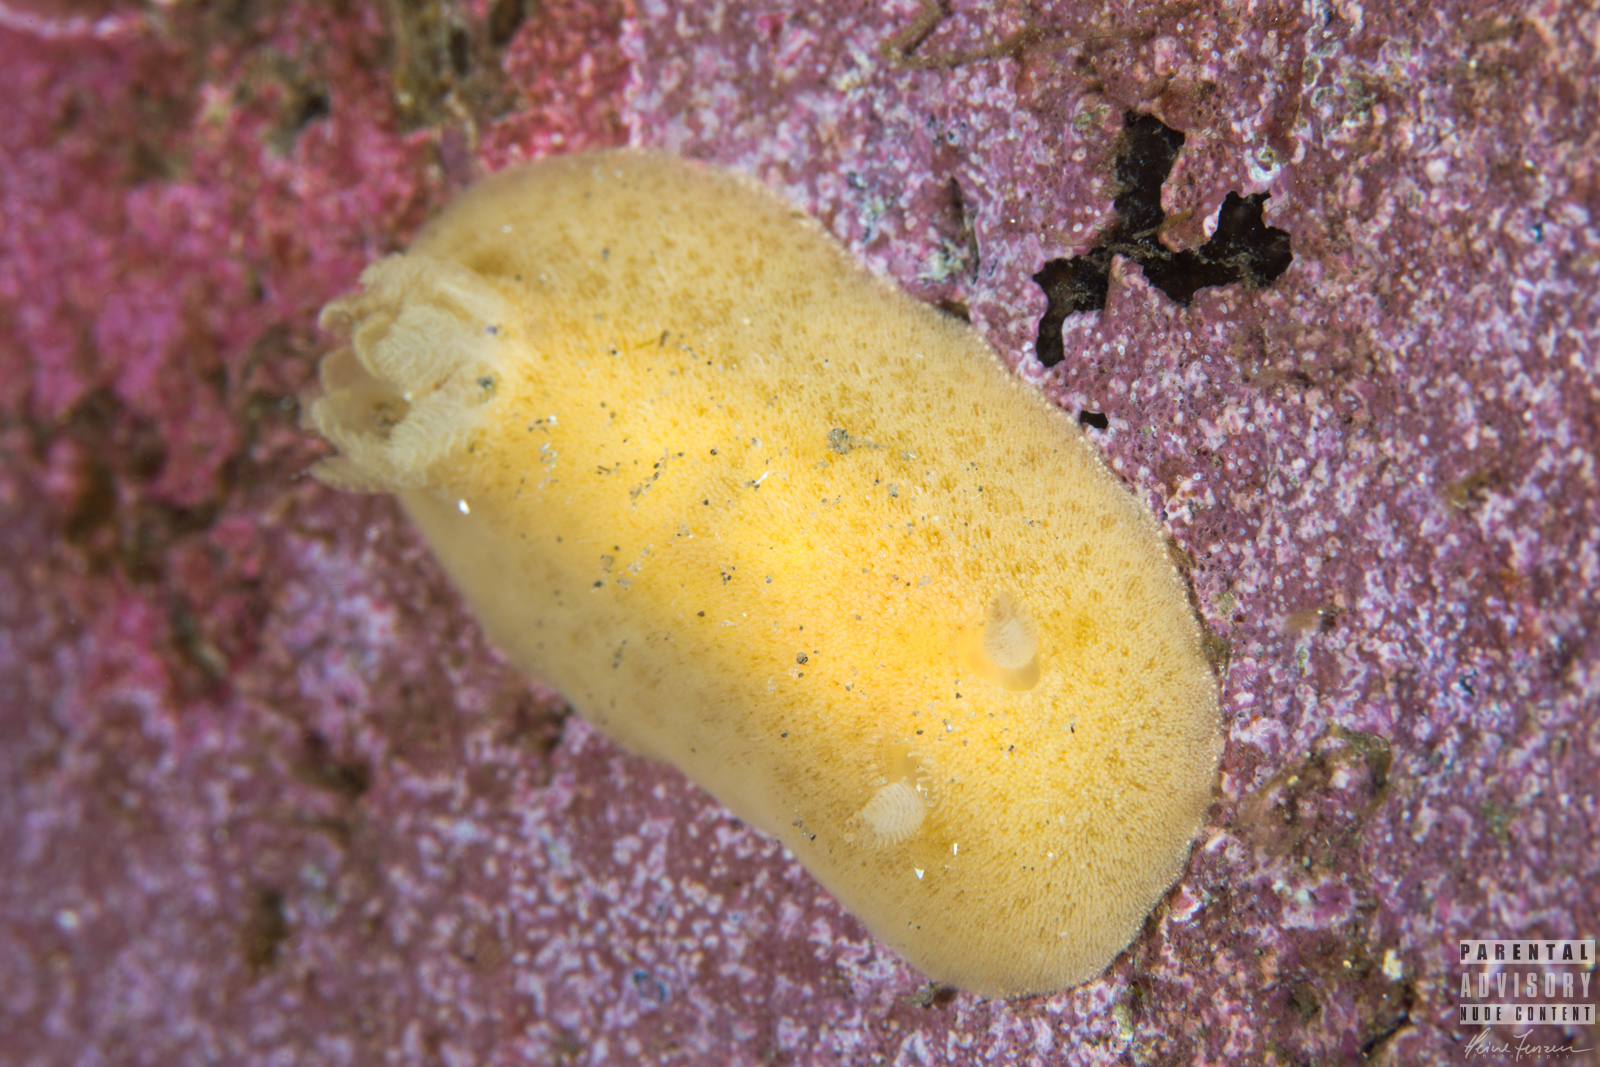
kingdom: Animalia
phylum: Mollusca
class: Gastropoda
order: Nudibranchia
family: Discodorididae
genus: Jorunna
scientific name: Jorunna tomentosa
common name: Grey sea slug
